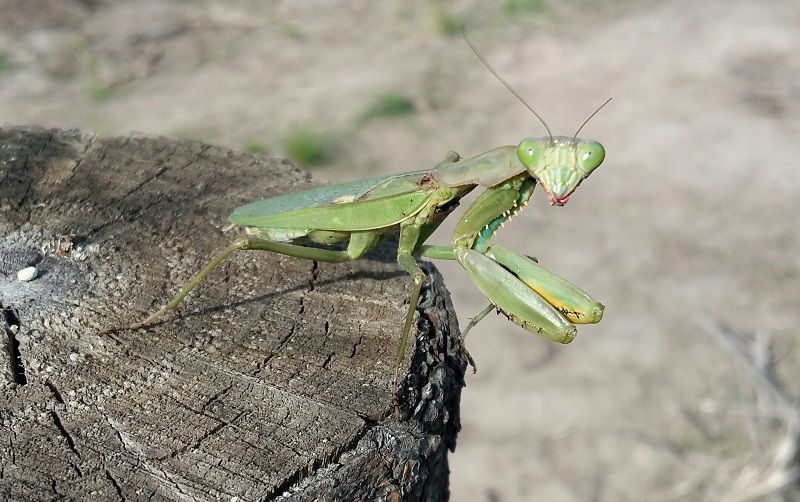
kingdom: Animalia
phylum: Arthropoda
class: Insecta
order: Mantodea
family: Mantidae
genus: Polyspilota
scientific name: Polyspilota aeruginosa
